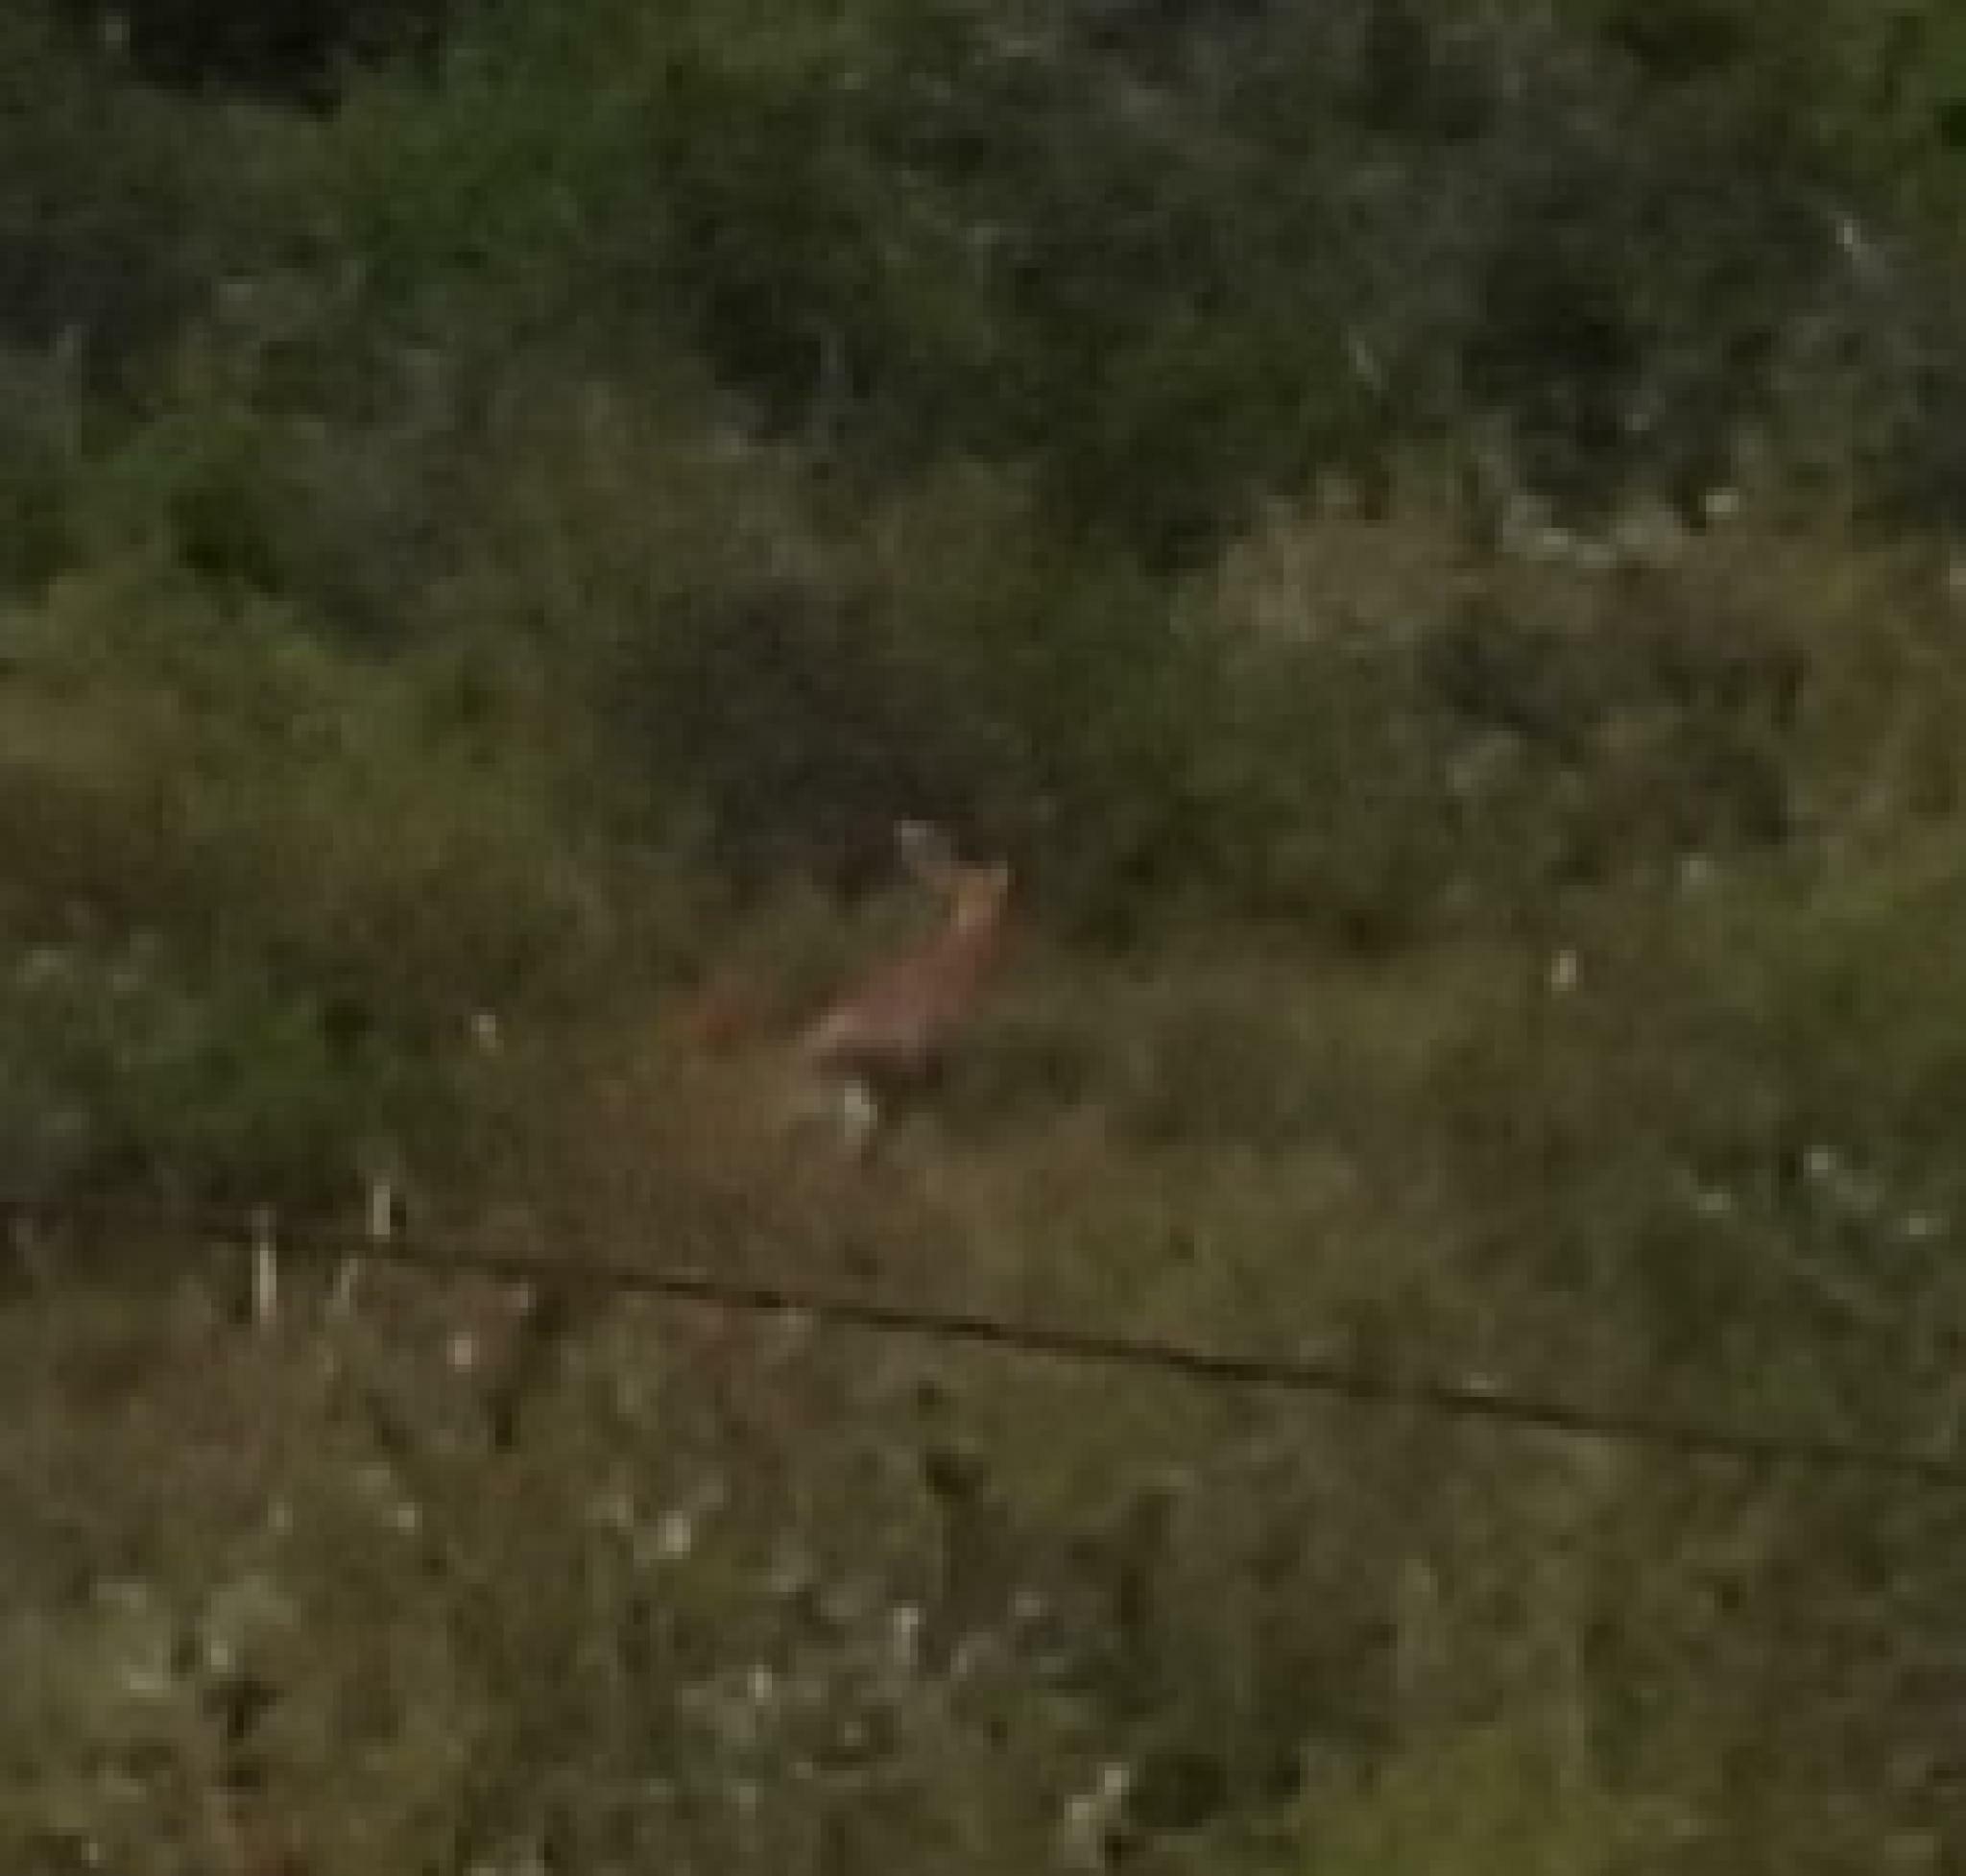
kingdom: Animalia
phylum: Chordata
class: Mammalia
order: Artiodactyla
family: Bovidae
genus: Raphicerus
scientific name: Raphicerus campestris
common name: Steenbok
